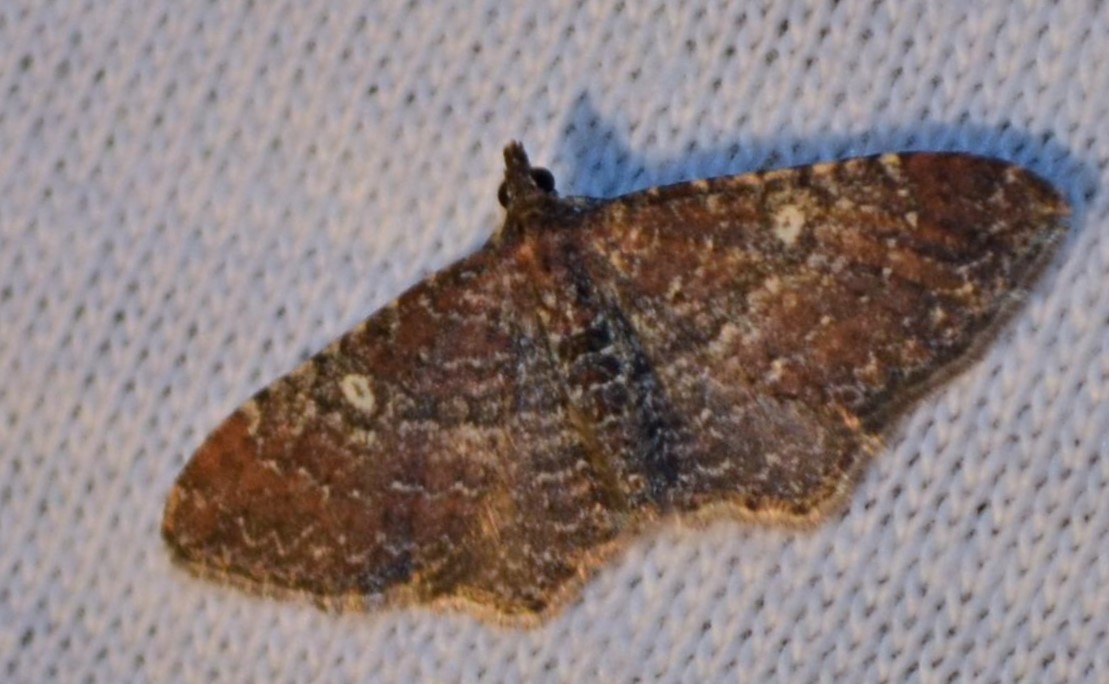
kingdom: Animalia
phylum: Arthropoda
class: Insecta
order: Lepidoptera
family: Geometridae
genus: Orthonama
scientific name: Orthonama obstipata
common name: The gem
